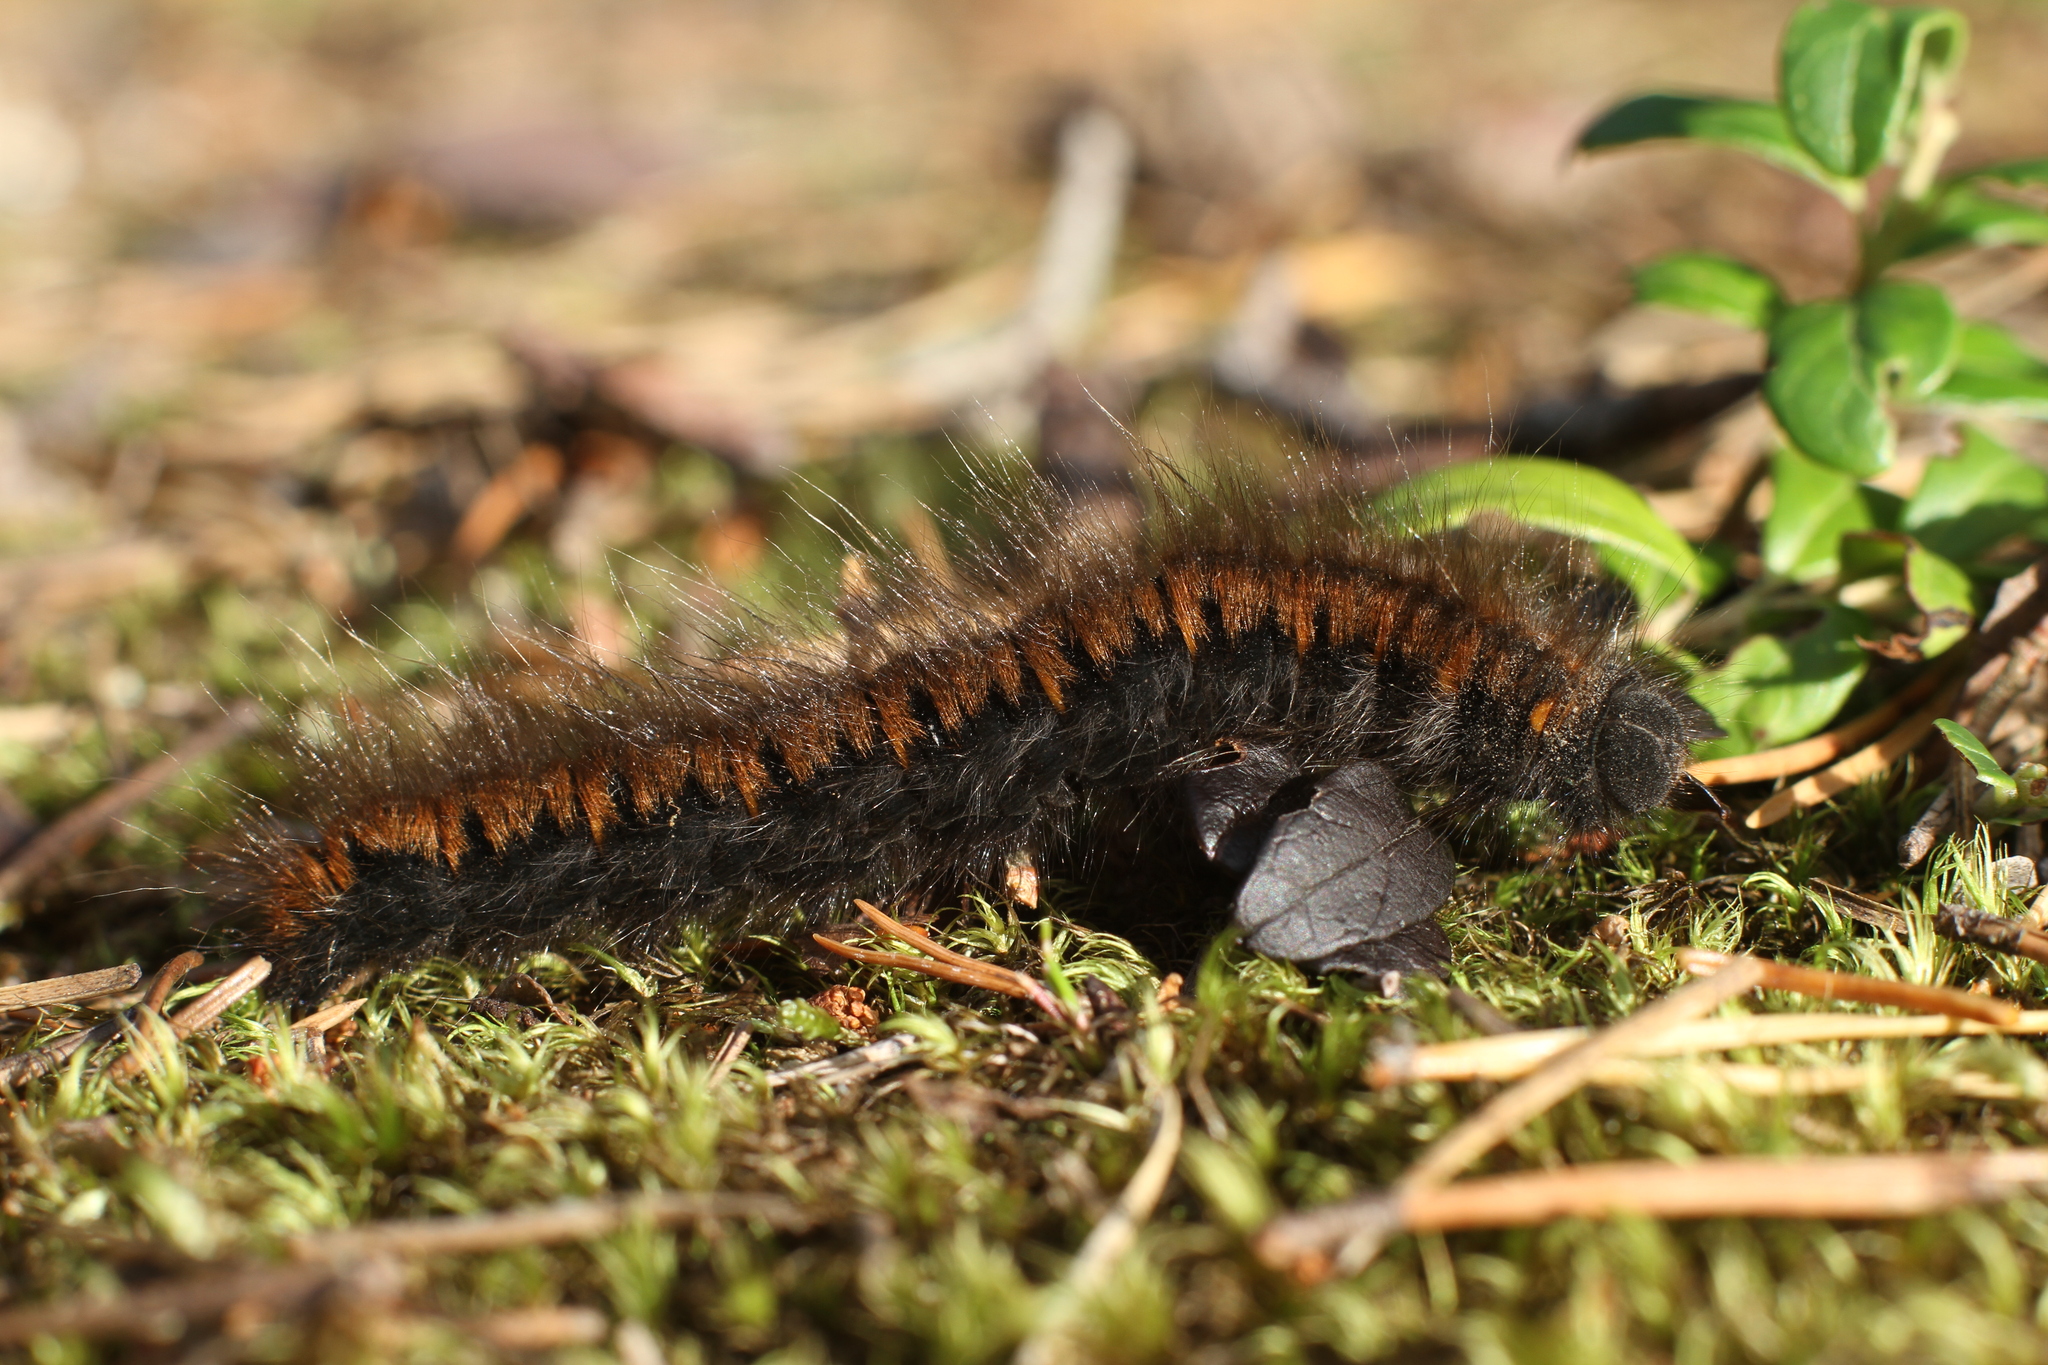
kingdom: Animalia
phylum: Arthropoda
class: Insecta
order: Lepidoptera
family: Lasiocampidae
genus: Macrothylacia
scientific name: Macrothylacia rubi
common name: Fox moth
